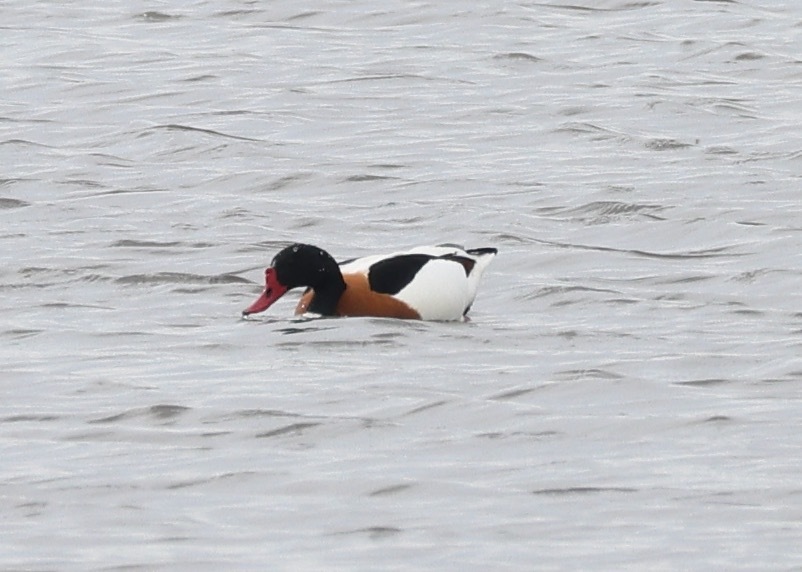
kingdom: Animalia
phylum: Chordata
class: Aves
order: Anseriformes
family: Anatidae
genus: Tadorna
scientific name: Tadorna tadorna
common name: Common shelduck
